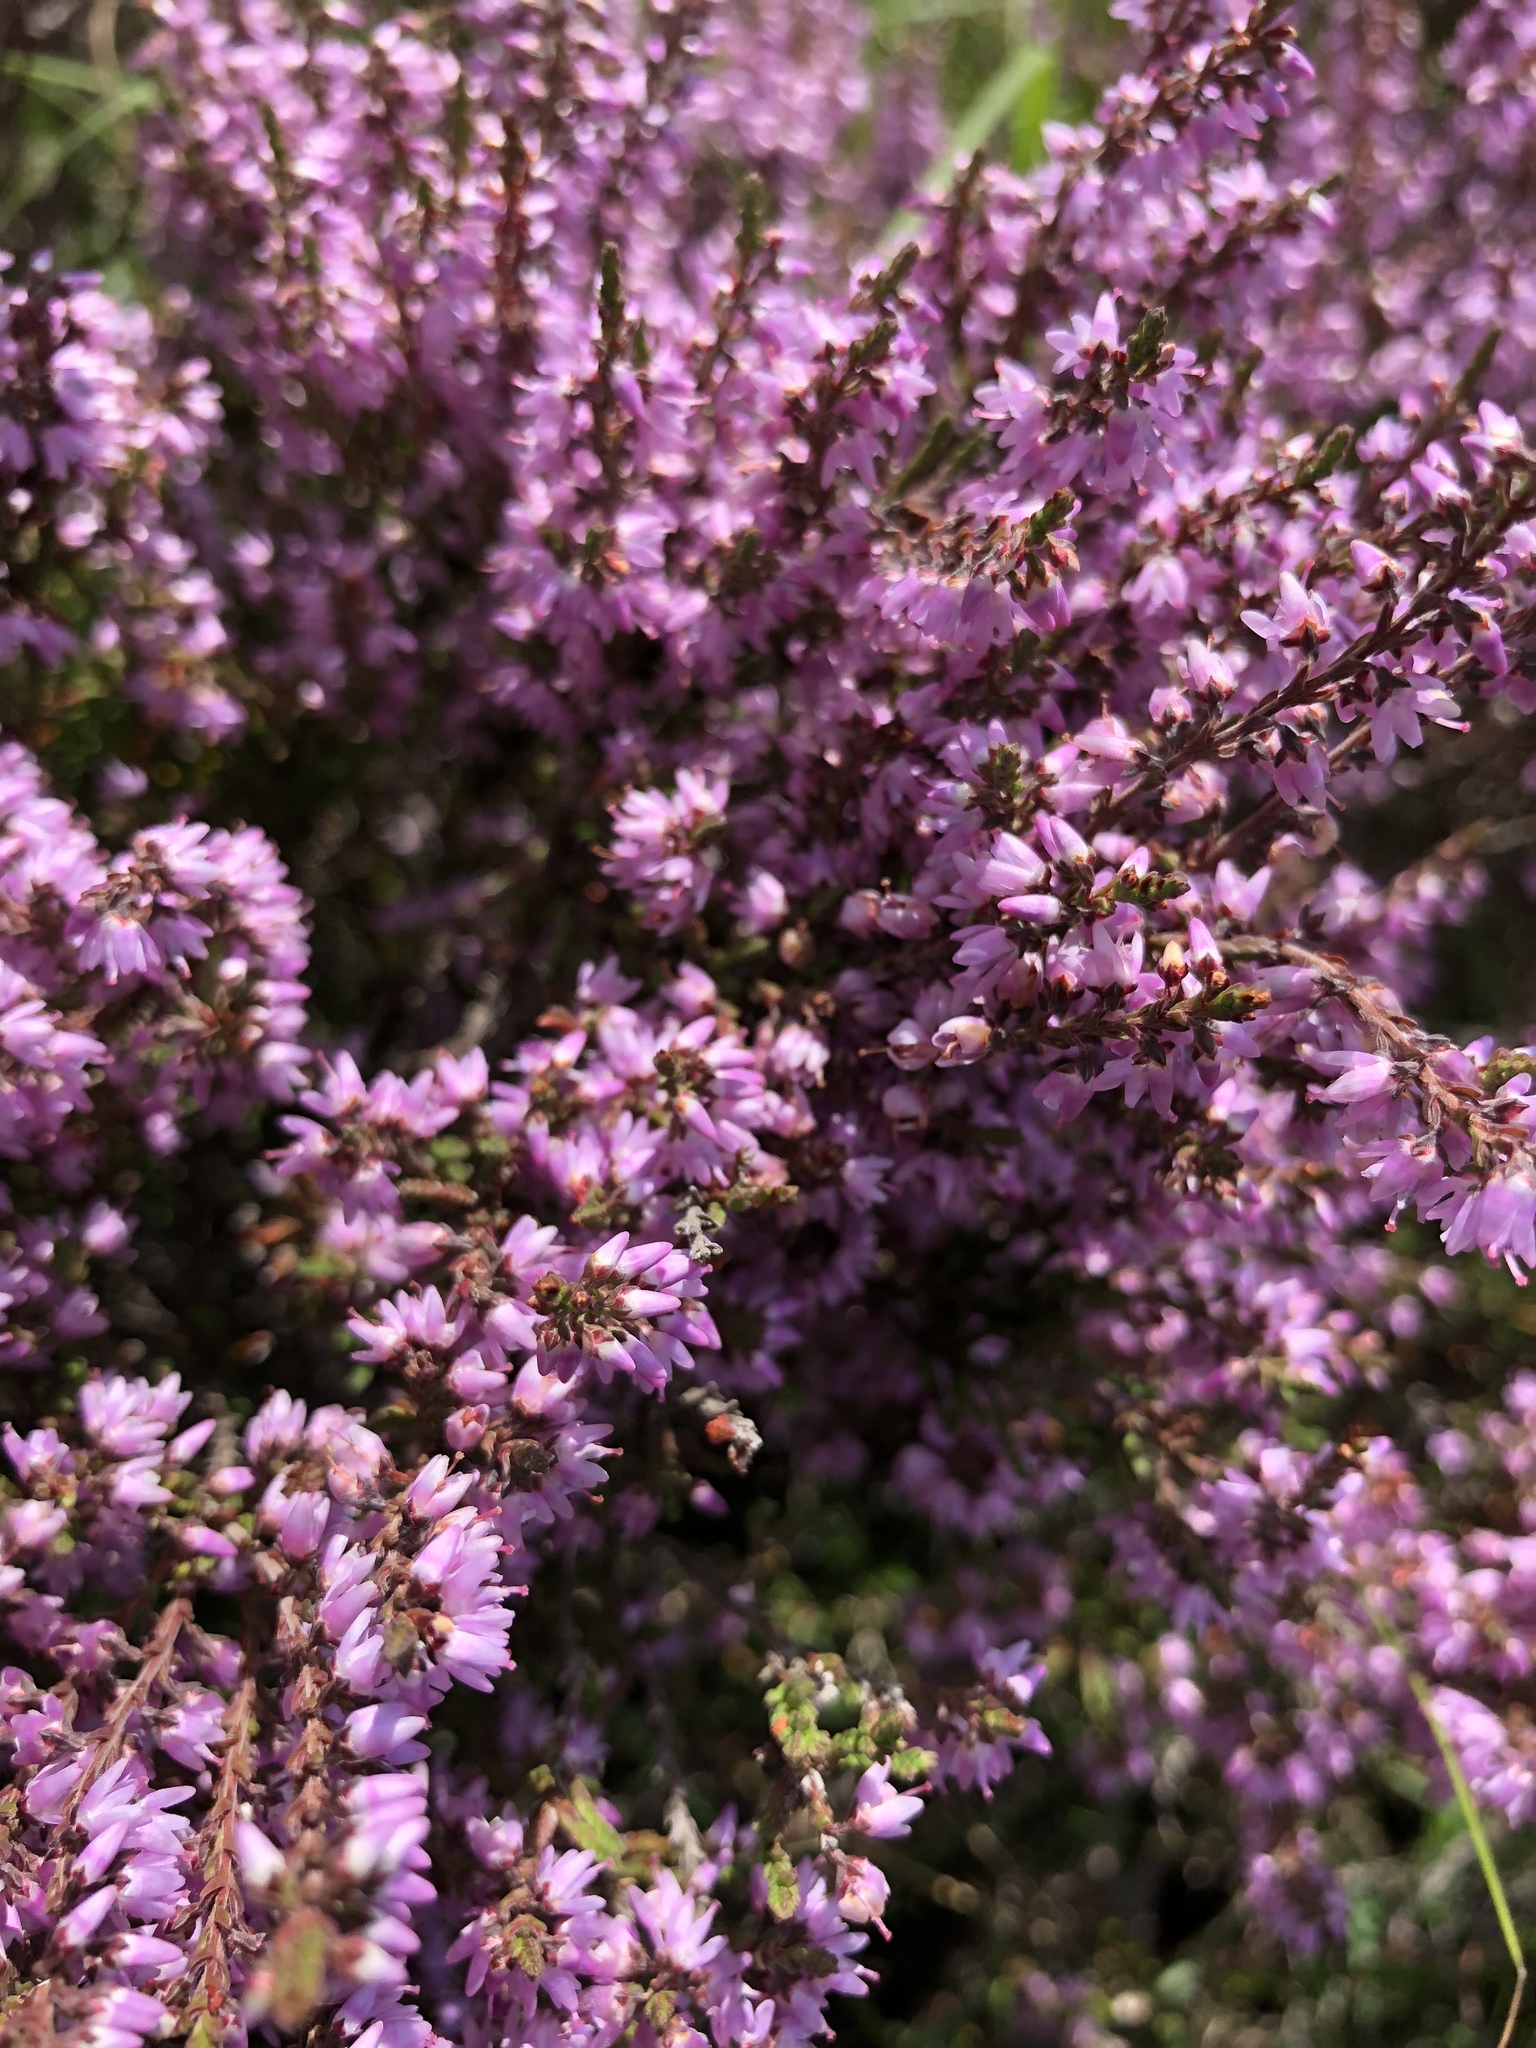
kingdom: Plantae
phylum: Tracheophyta
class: Magnoliopsida
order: Ericales
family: Ericaceae
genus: Calluna
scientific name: Calluna vulgaris
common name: Heather
